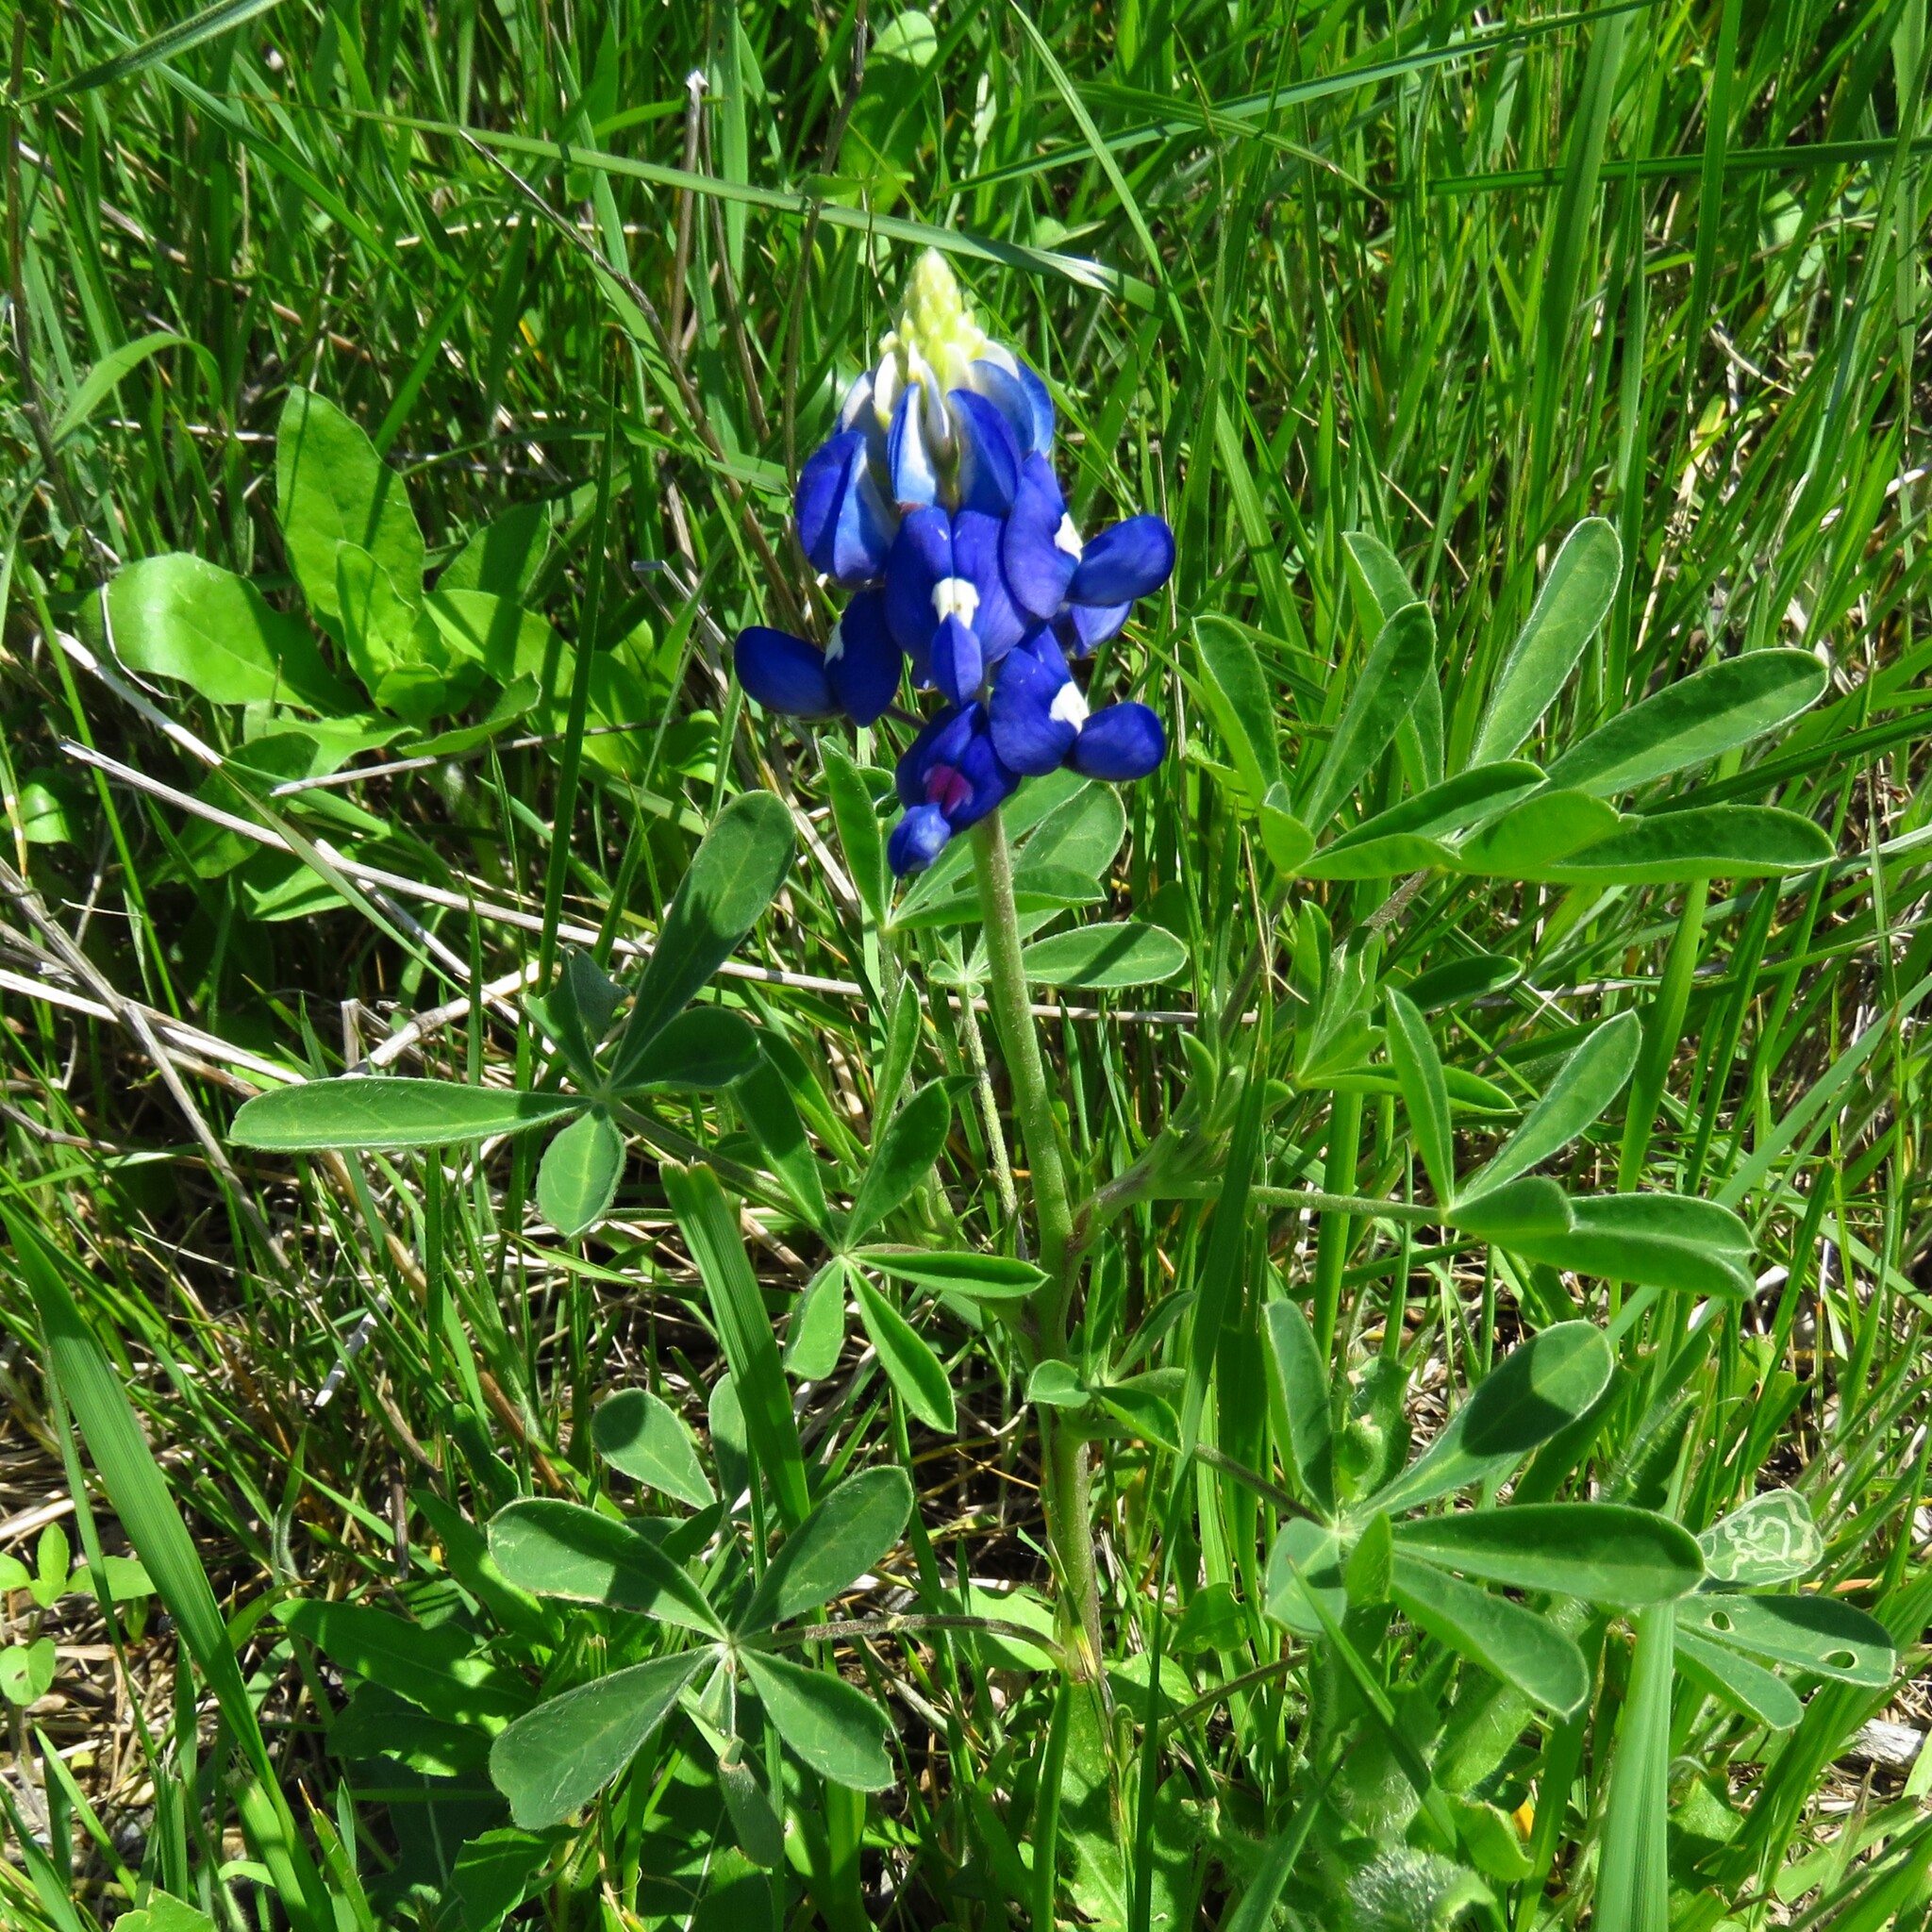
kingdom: Plantae
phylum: Tracheophyta
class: Magnoliopsida
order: Fabales
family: Fabaceae
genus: Lupinus
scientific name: Lupinus texensis
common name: Texas bluebonnet
